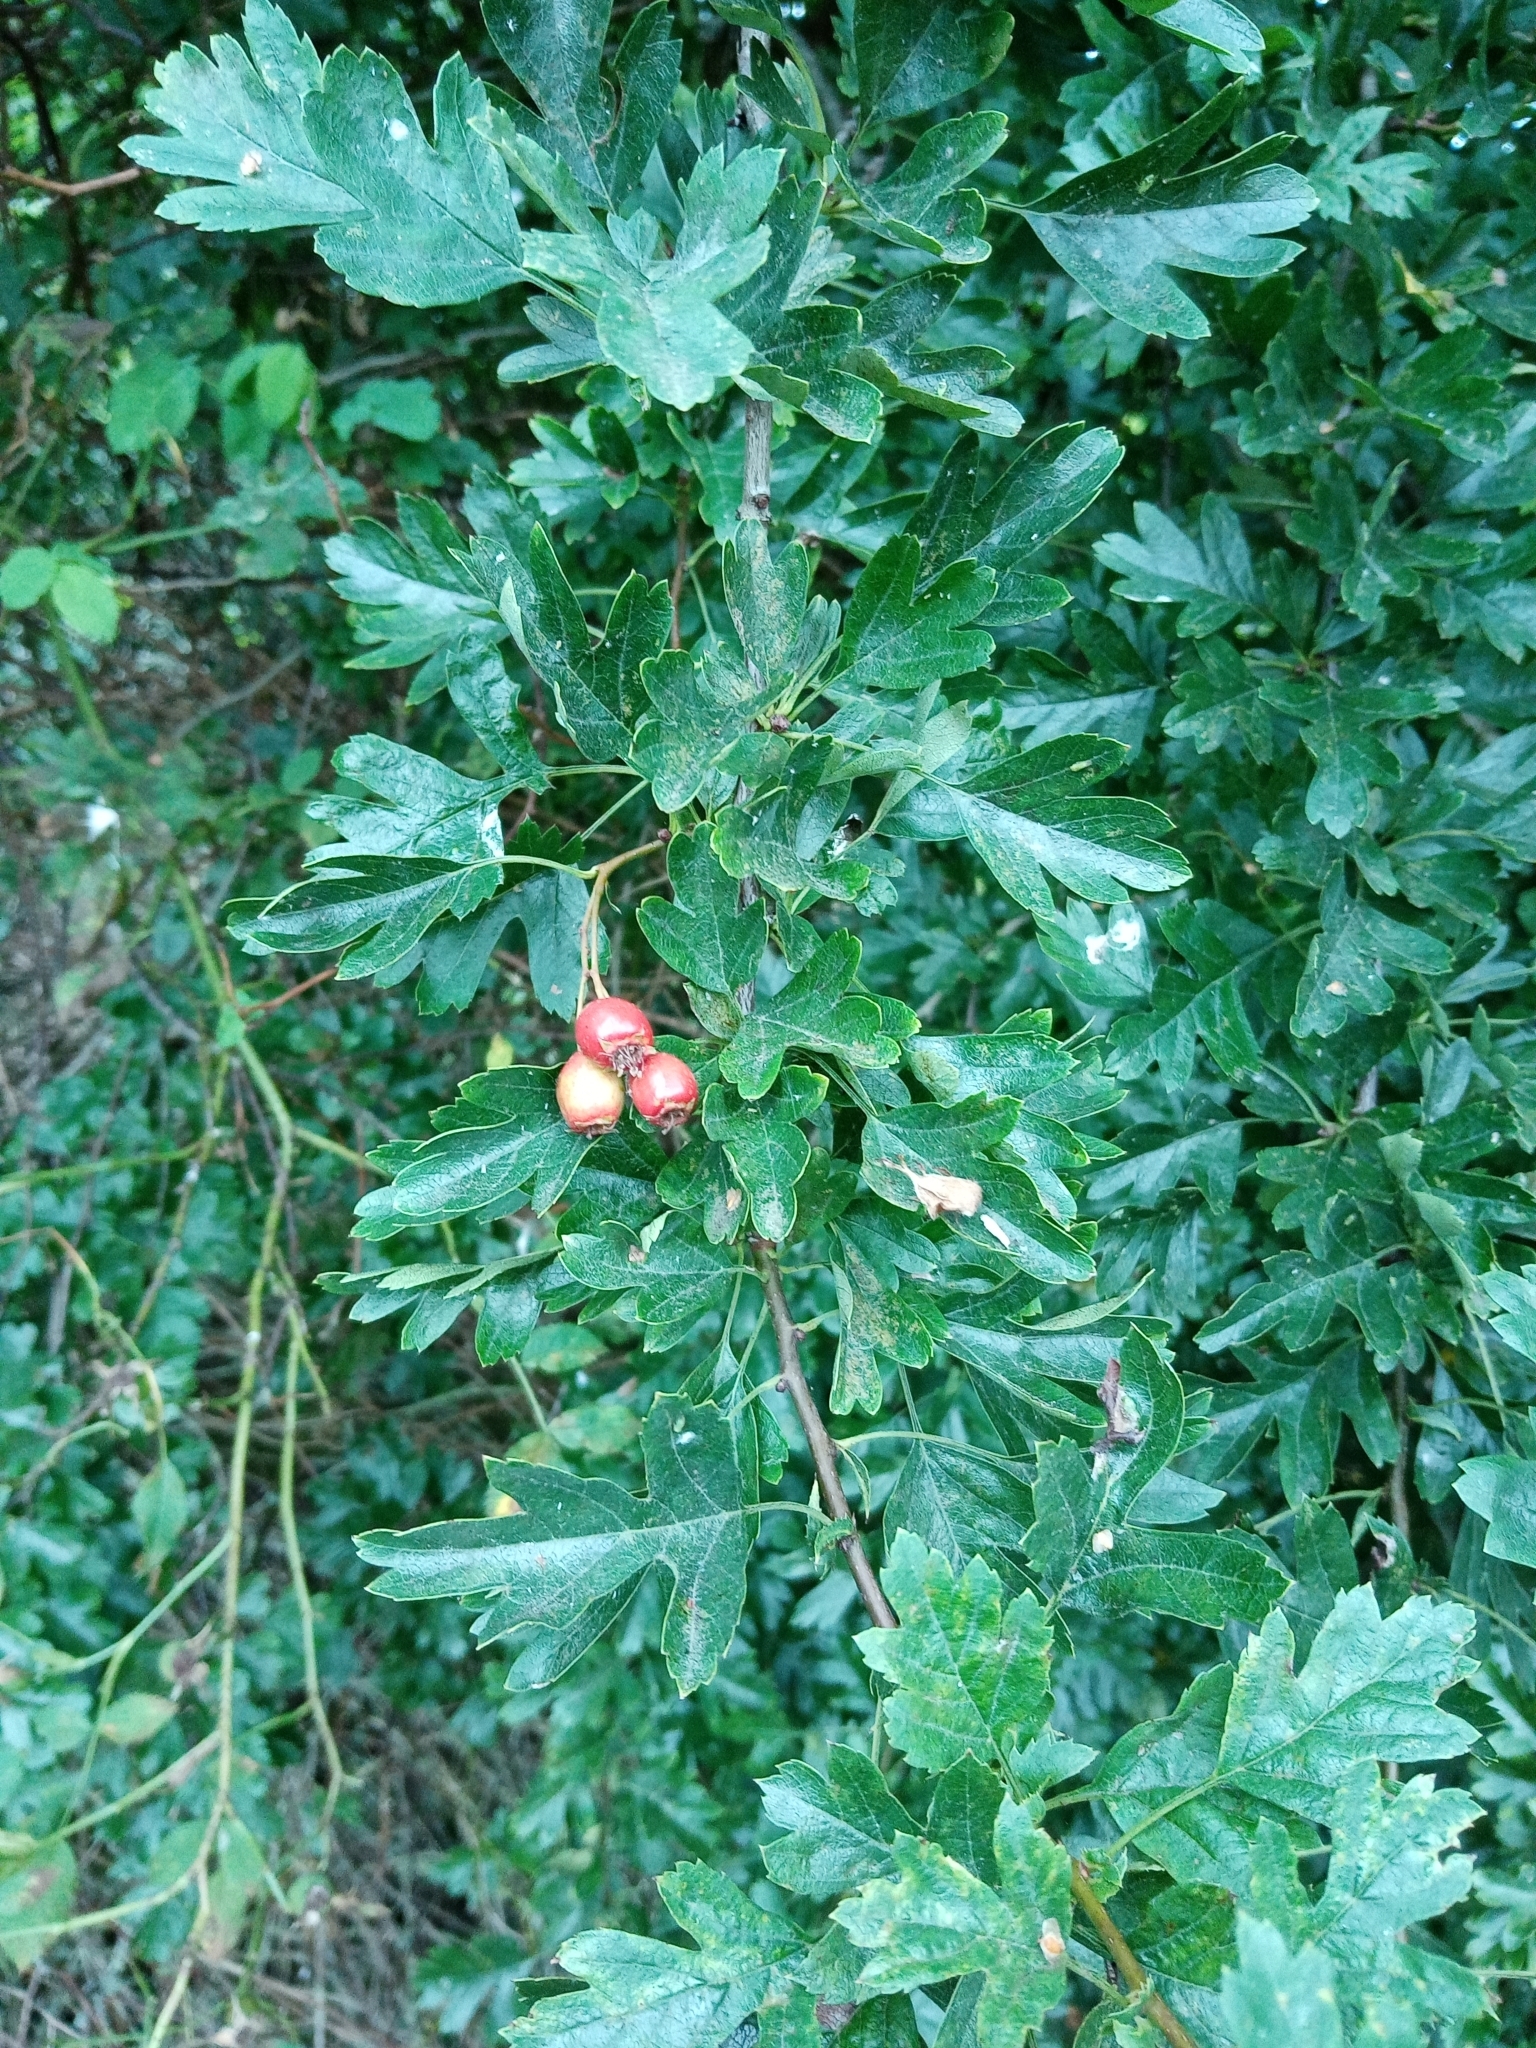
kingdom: Plantae
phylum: Tracheophyta
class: Magnoliopsida
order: Rosales
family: Rosaceae
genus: Crataegus
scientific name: Crataegus monogyna
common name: Hawthorn
